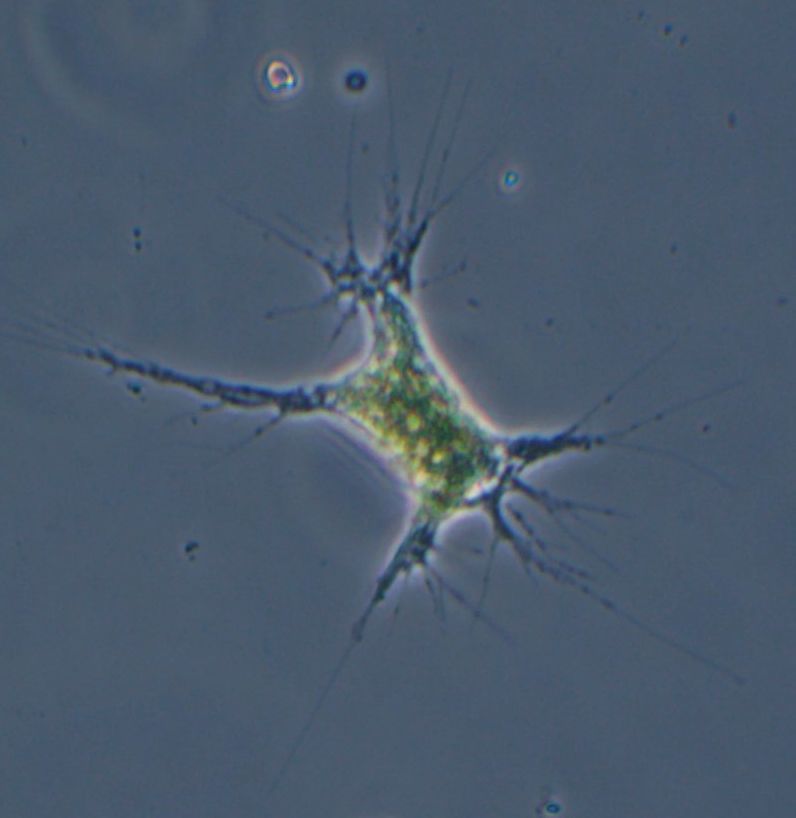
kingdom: Chromista
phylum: Ochrophyta
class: Picophagea
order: Chlamydomyxales
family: Chlamydomyxaceae
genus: Chlamydomyxa
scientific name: Chlamydomyxa labrynthuloides
